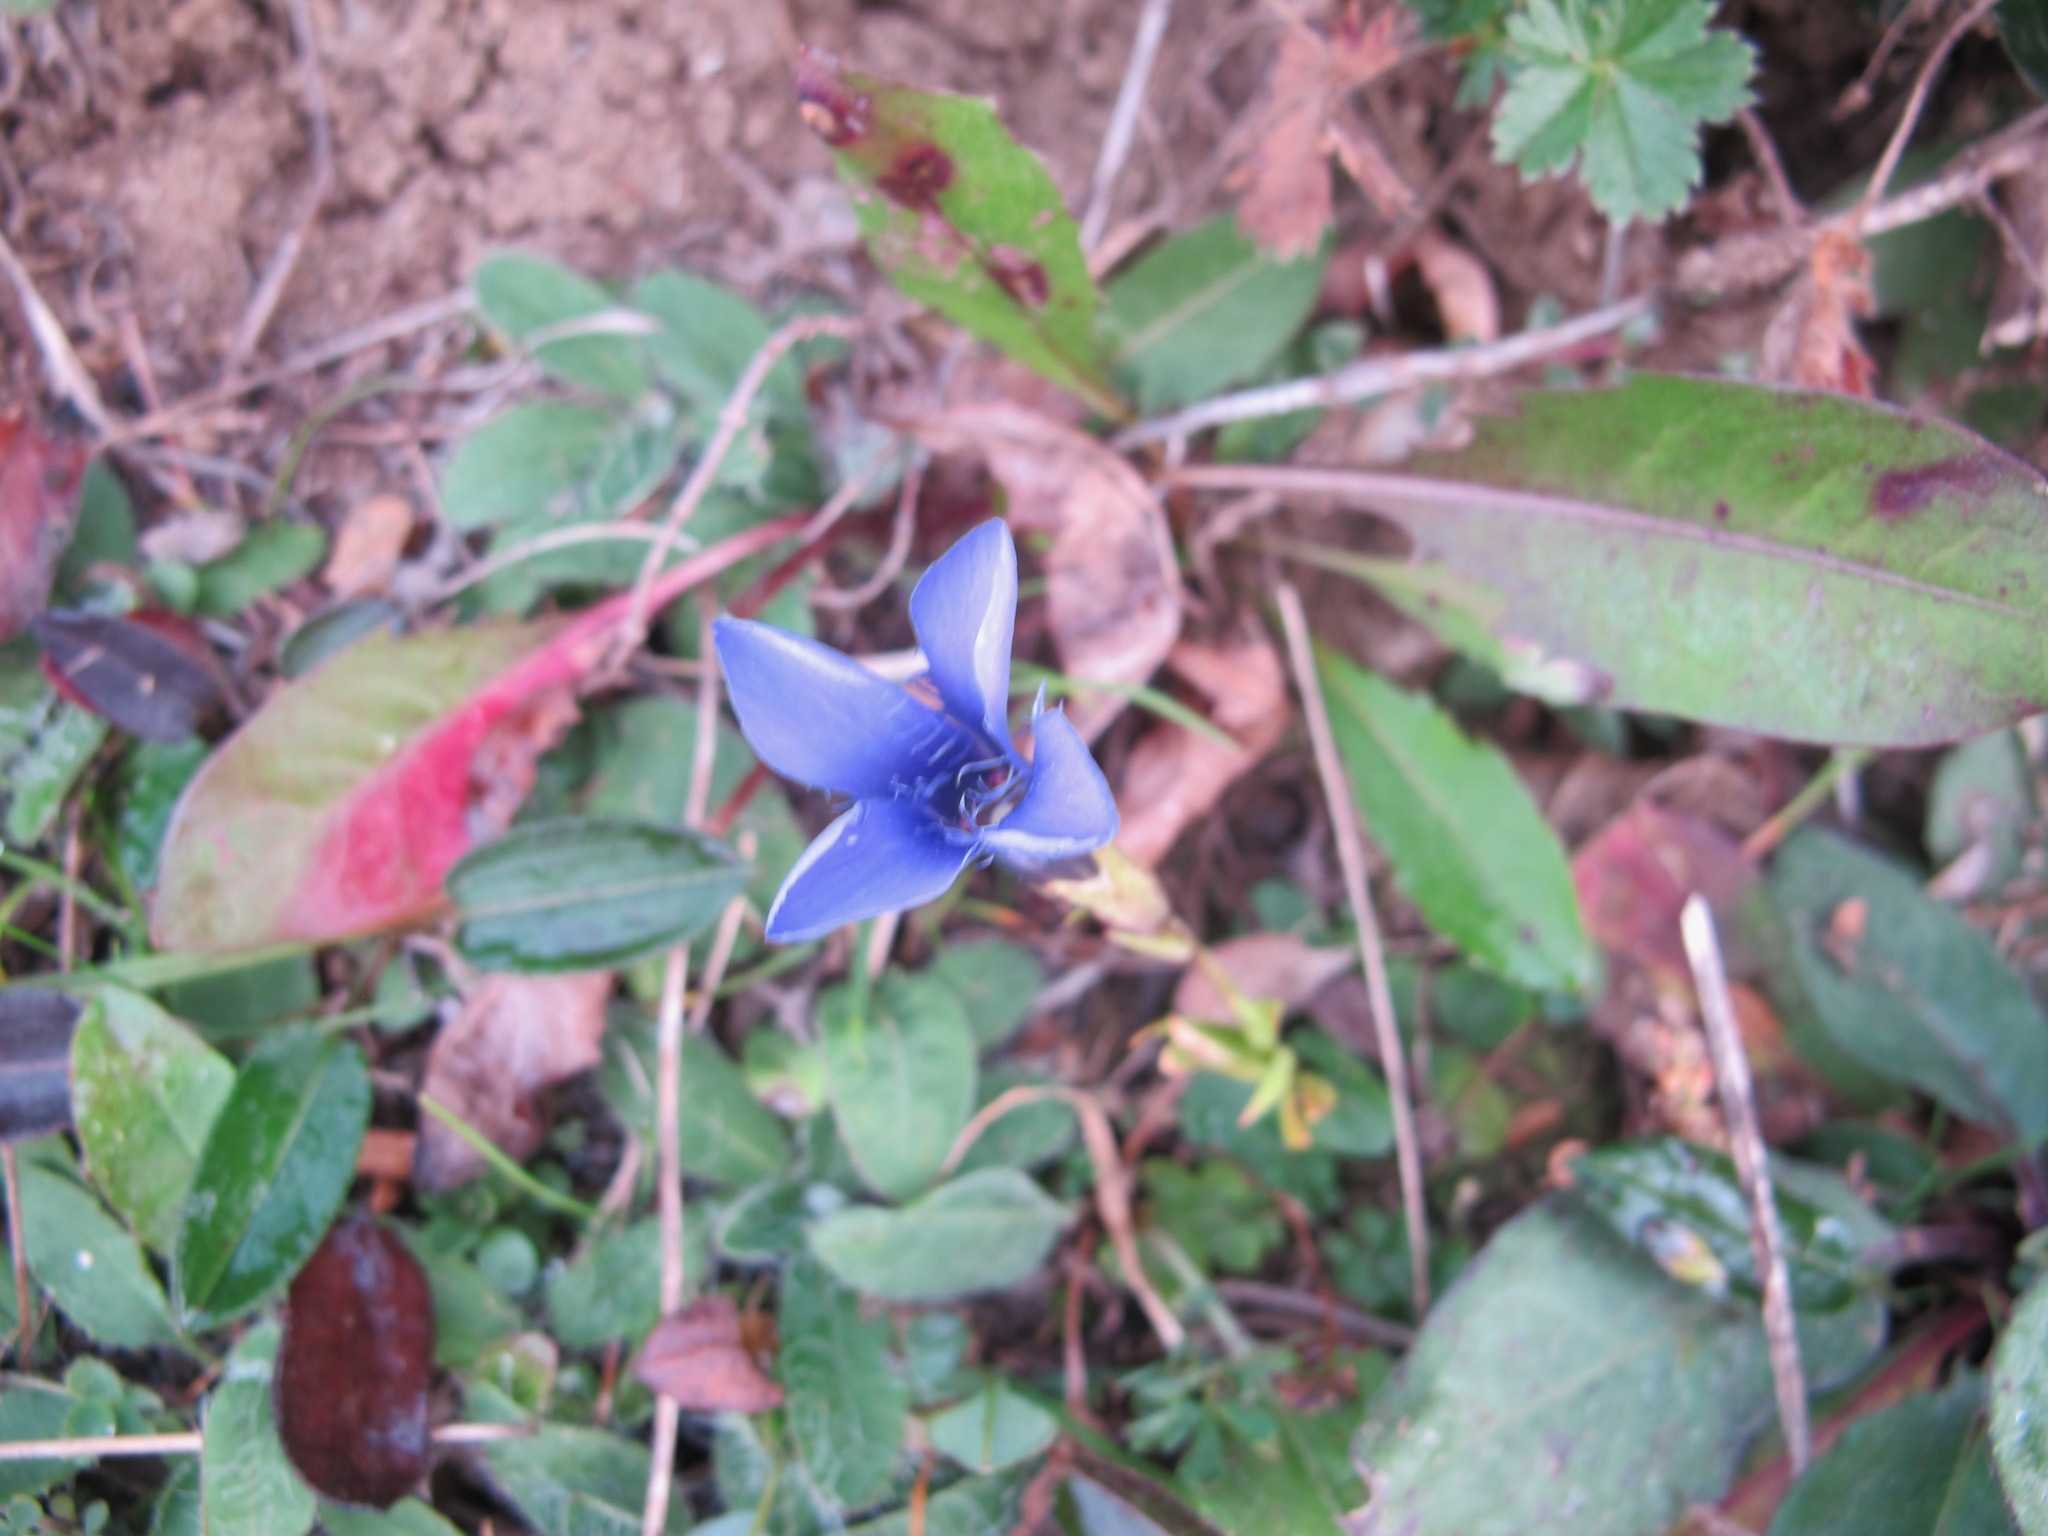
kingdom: Plantae
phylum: Tracheophyta
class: Magnoliopsida
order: Gentianales
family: Gentianaceae
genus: Gentianopsis
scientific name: Gentianopsis ciliata
